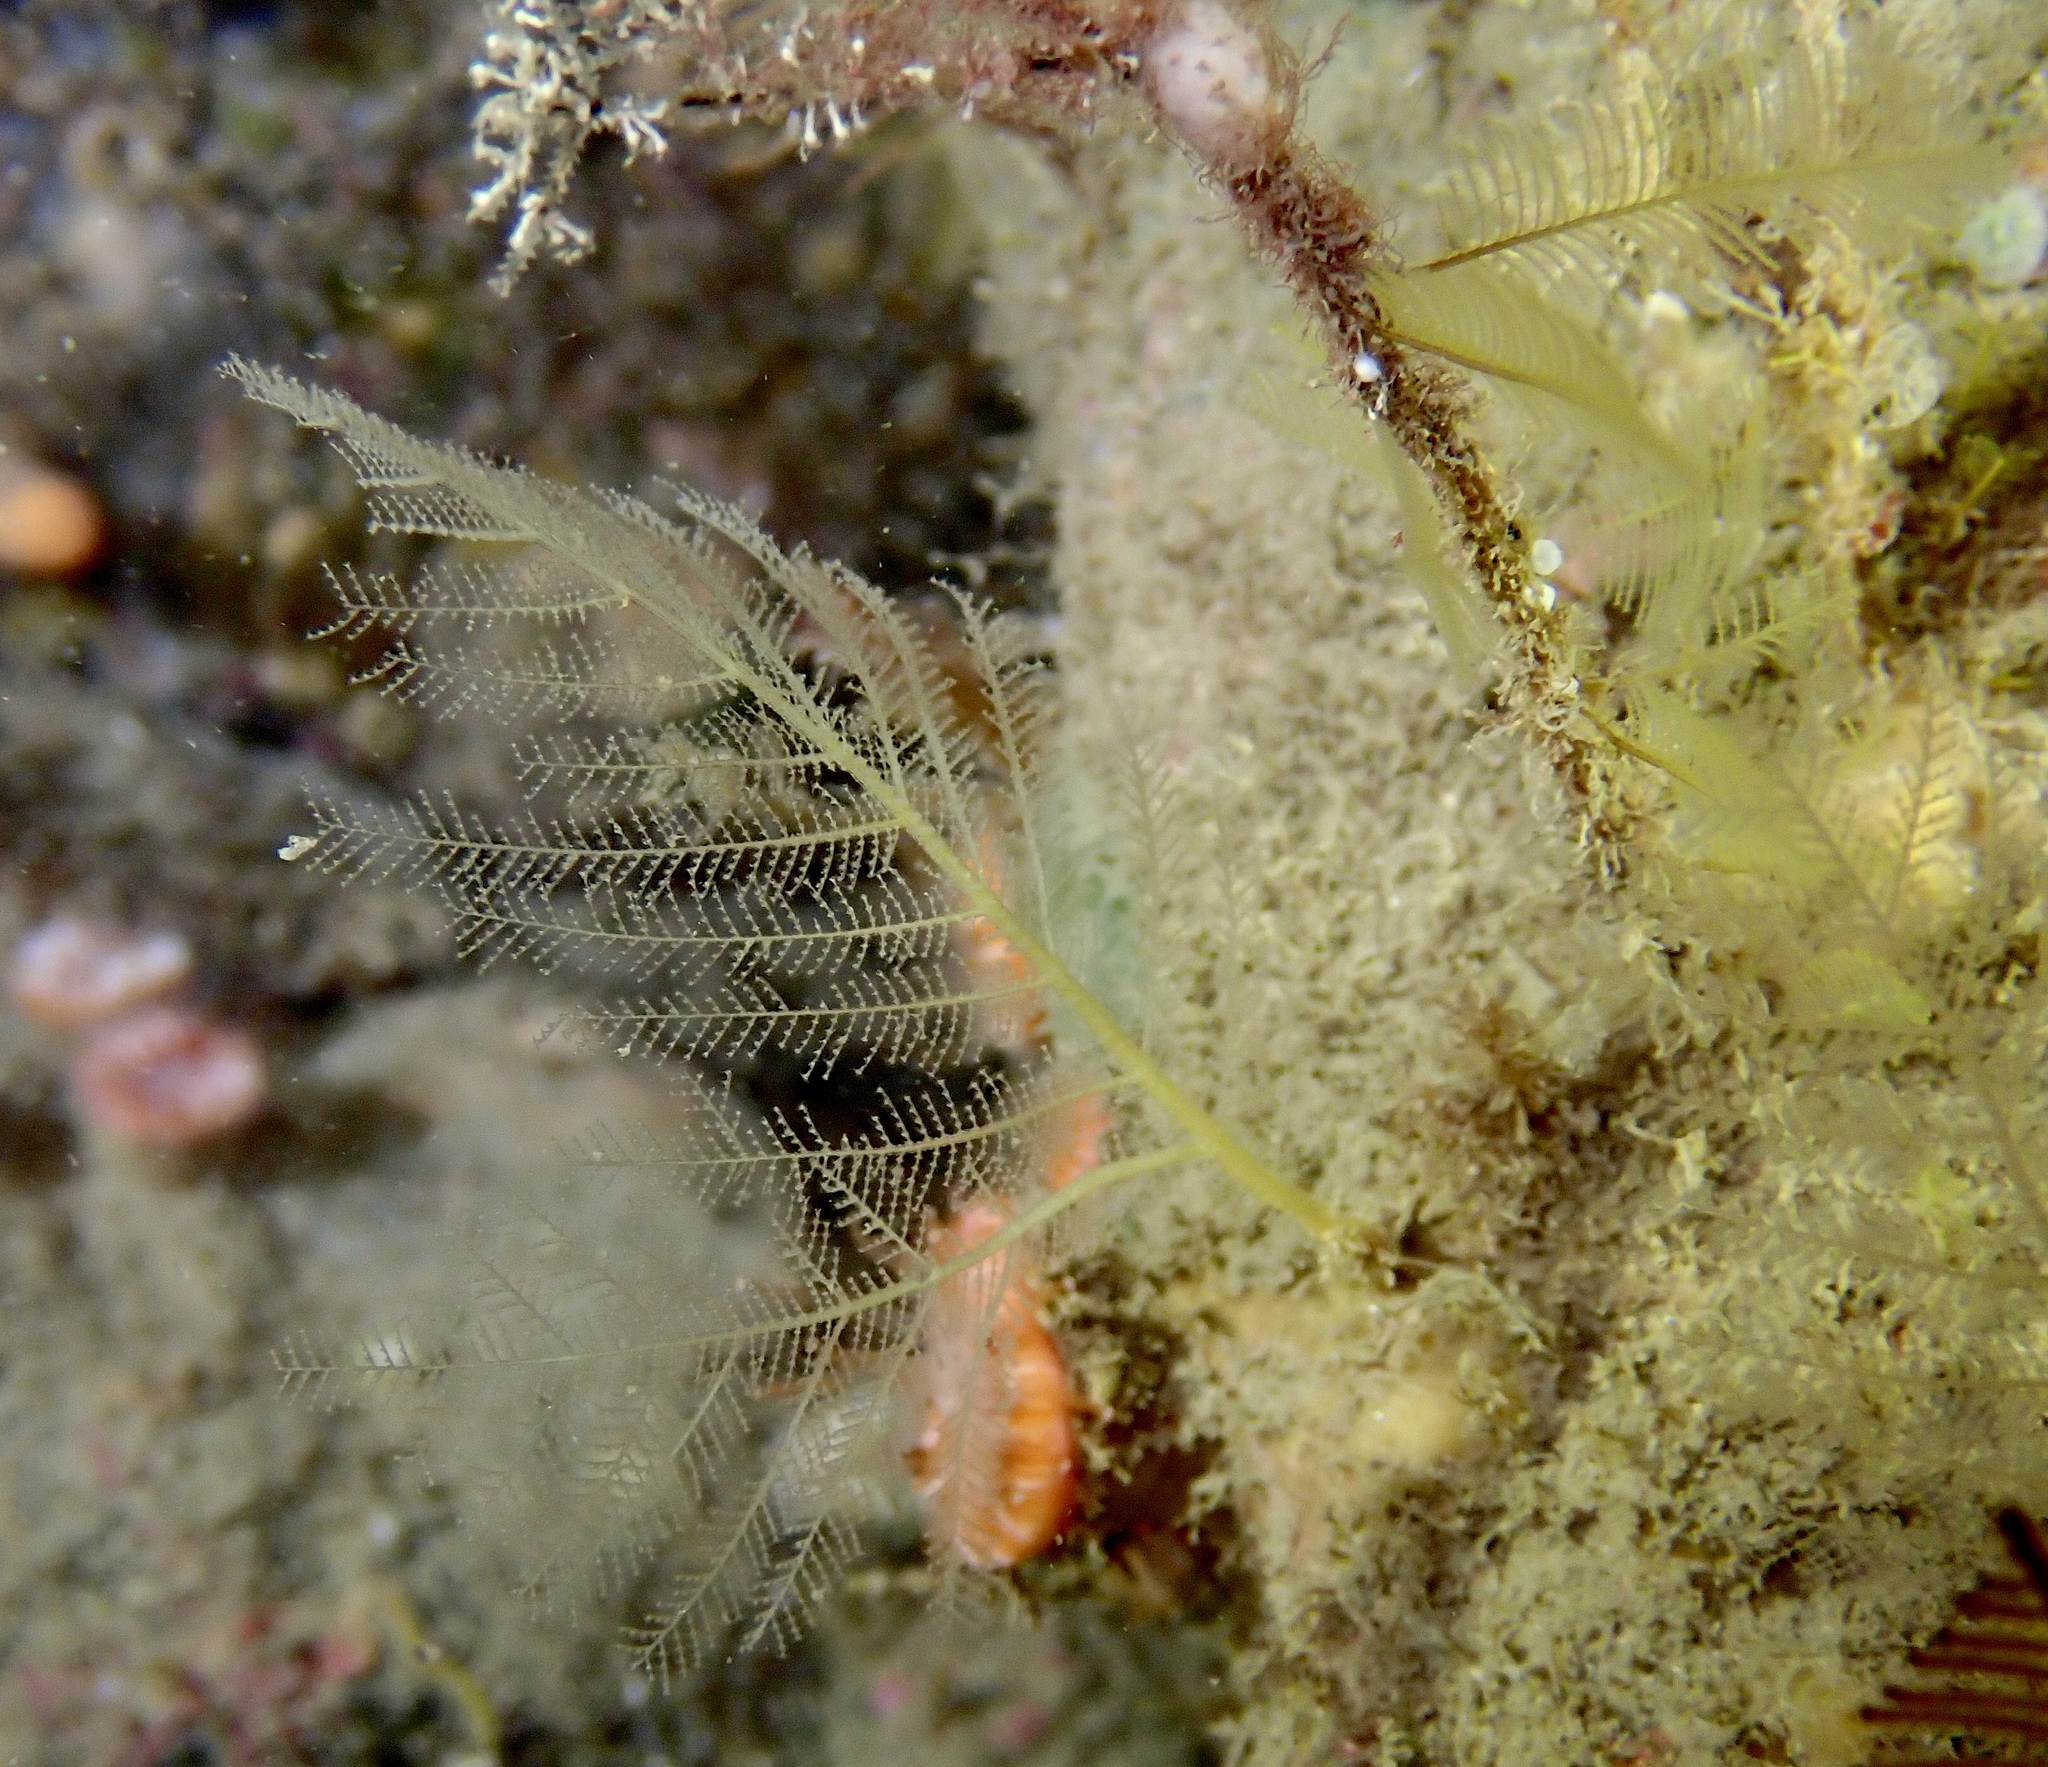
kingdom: Animalia
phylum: Cnidaria
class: Hydrozoa
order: Leptothecata
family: Halopterididae
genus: Polyplumaria
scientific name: Polyplumaria flabellata
